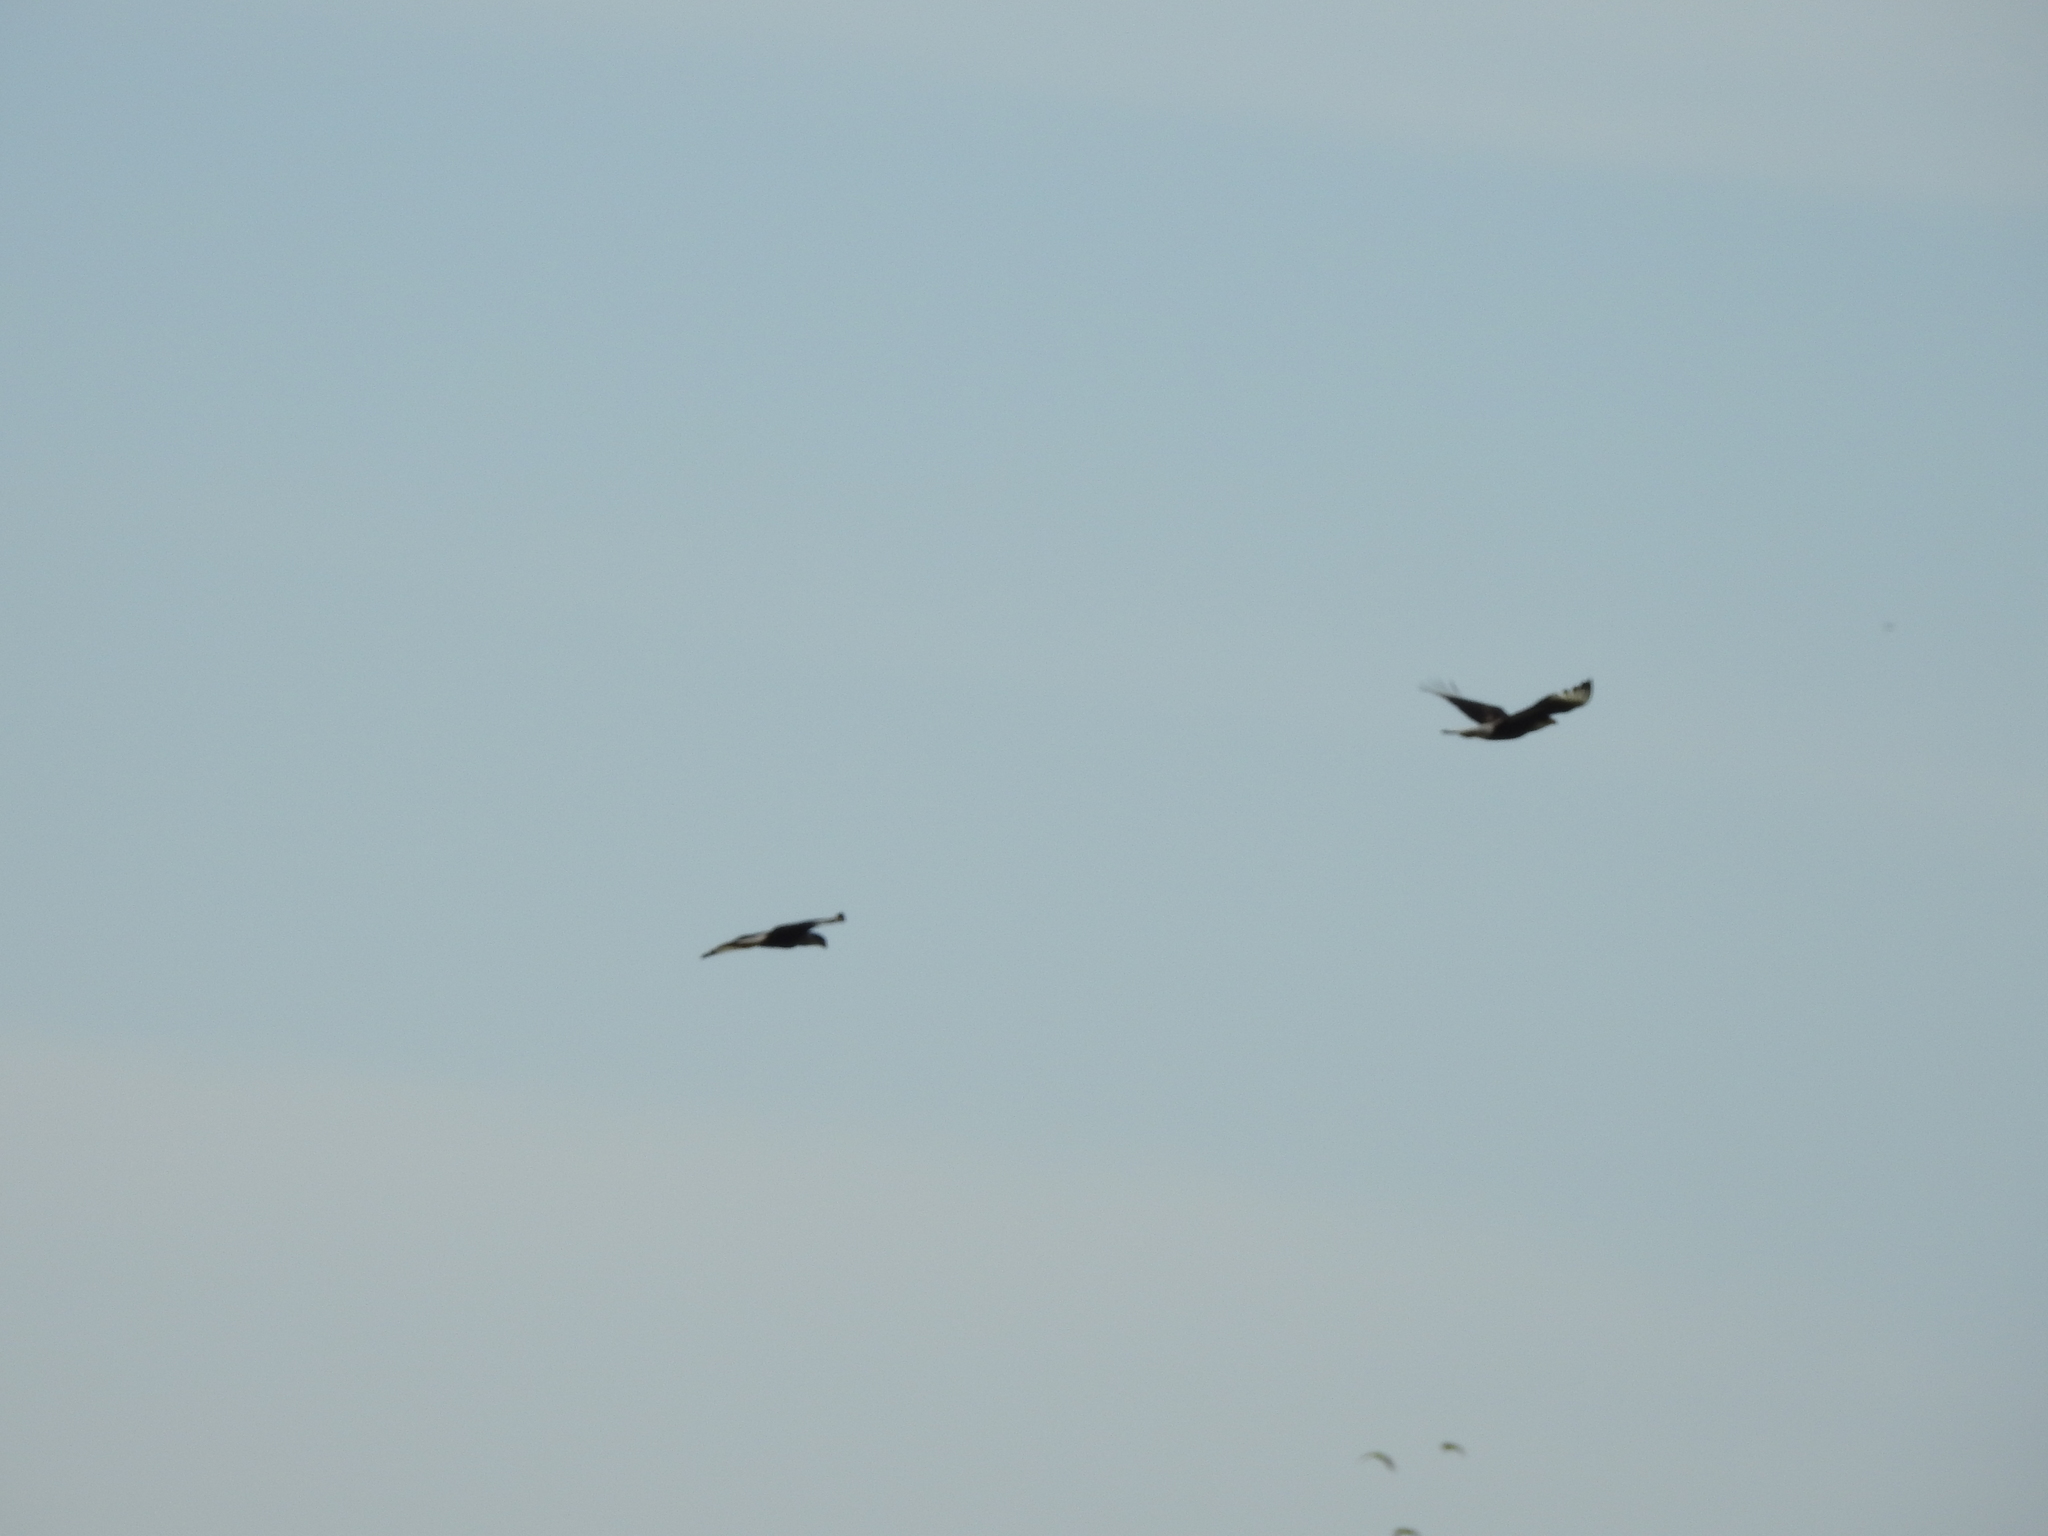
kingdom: Animalia
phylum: Chordata
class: Aves
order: Falconiformes
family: Falconidae
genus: Caracara
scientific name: Caracara plancus
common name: Southern caracara
